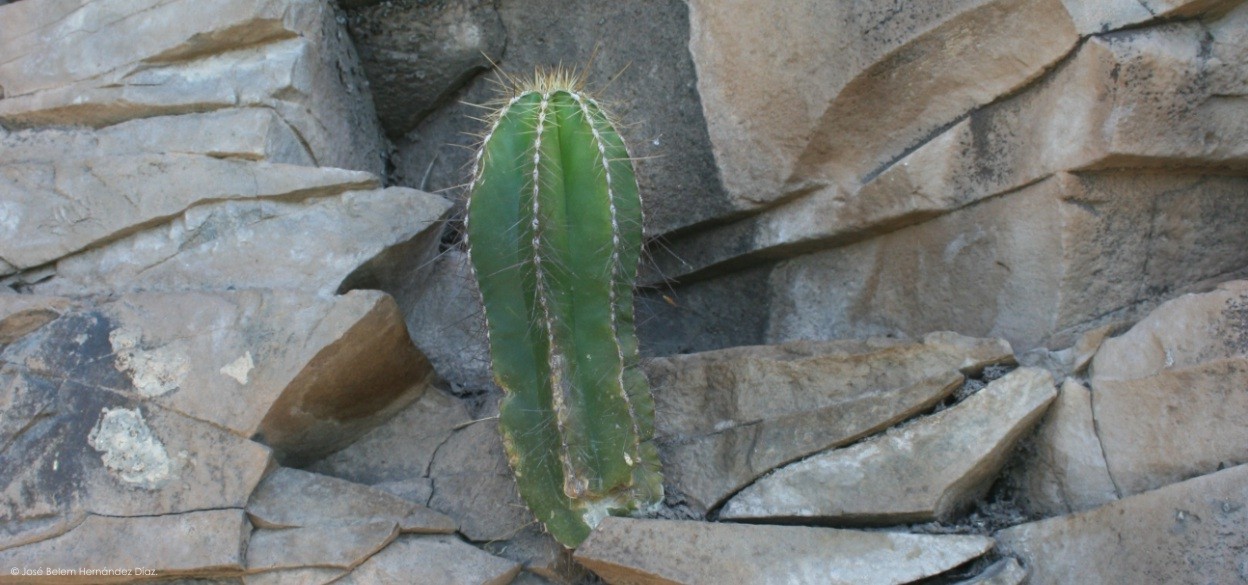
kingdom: Plantae
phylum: Tracheophyta
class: Magnoliopsida
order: Caryophyllales
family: Cactaceae
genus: Stenocereus
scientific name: Stenocereus dumortieri
